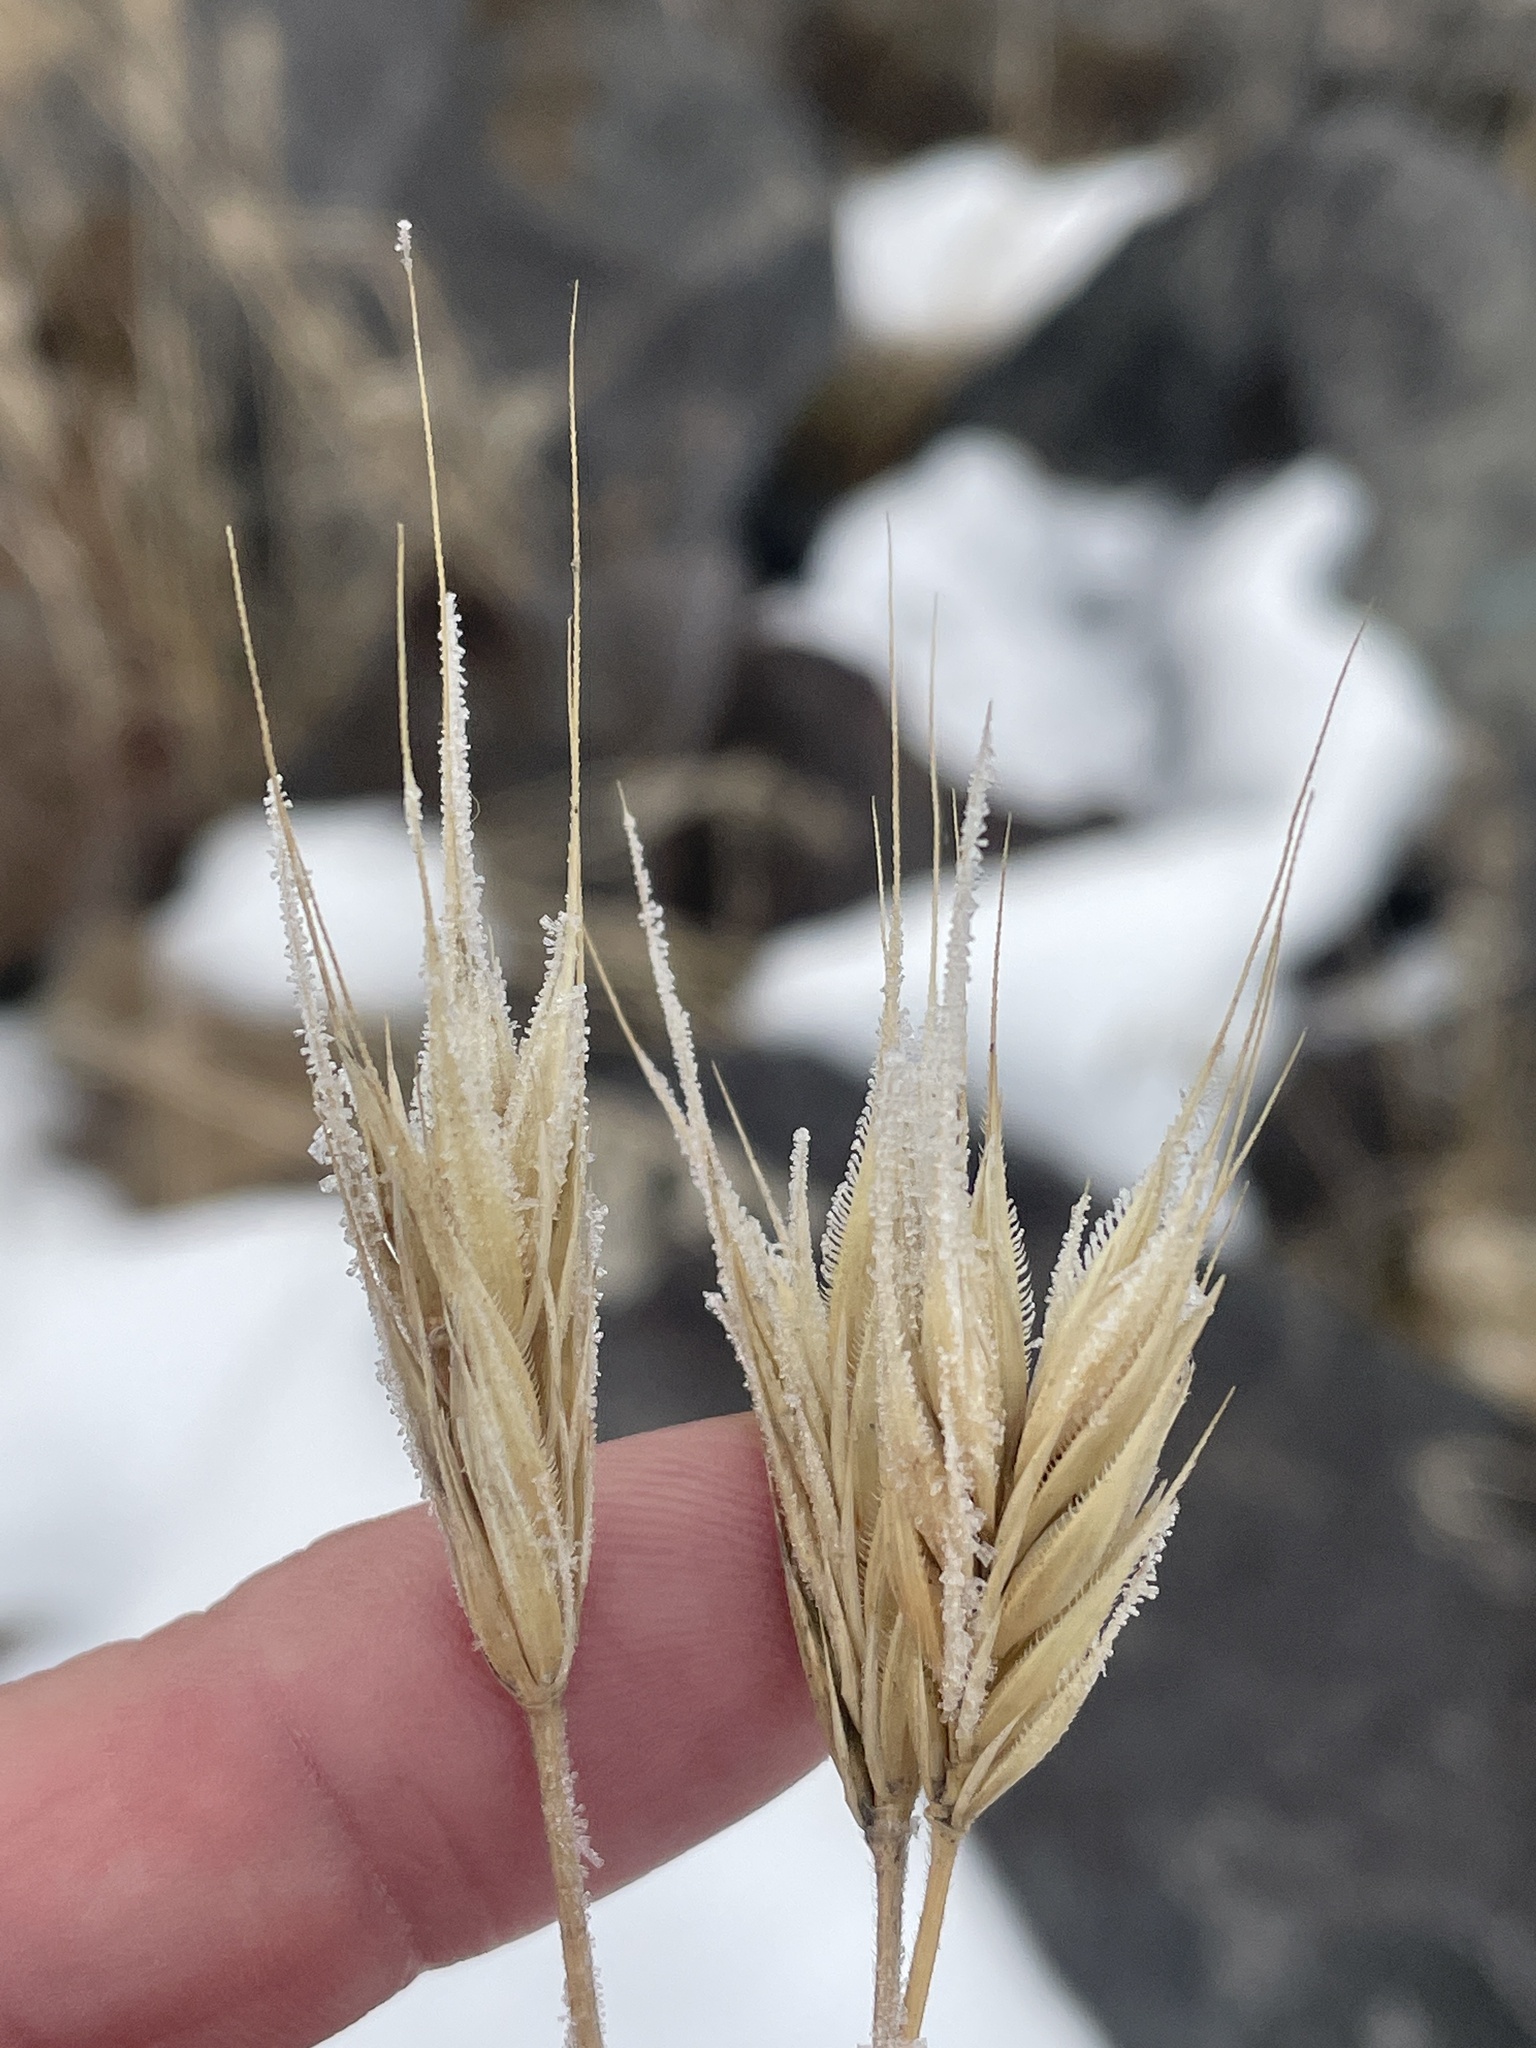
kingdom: Plantae
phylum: Tracheophyta
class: Liliopsida
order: Poales
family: Poaceae
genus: Secale
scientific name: Secale cereale
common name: Rye
